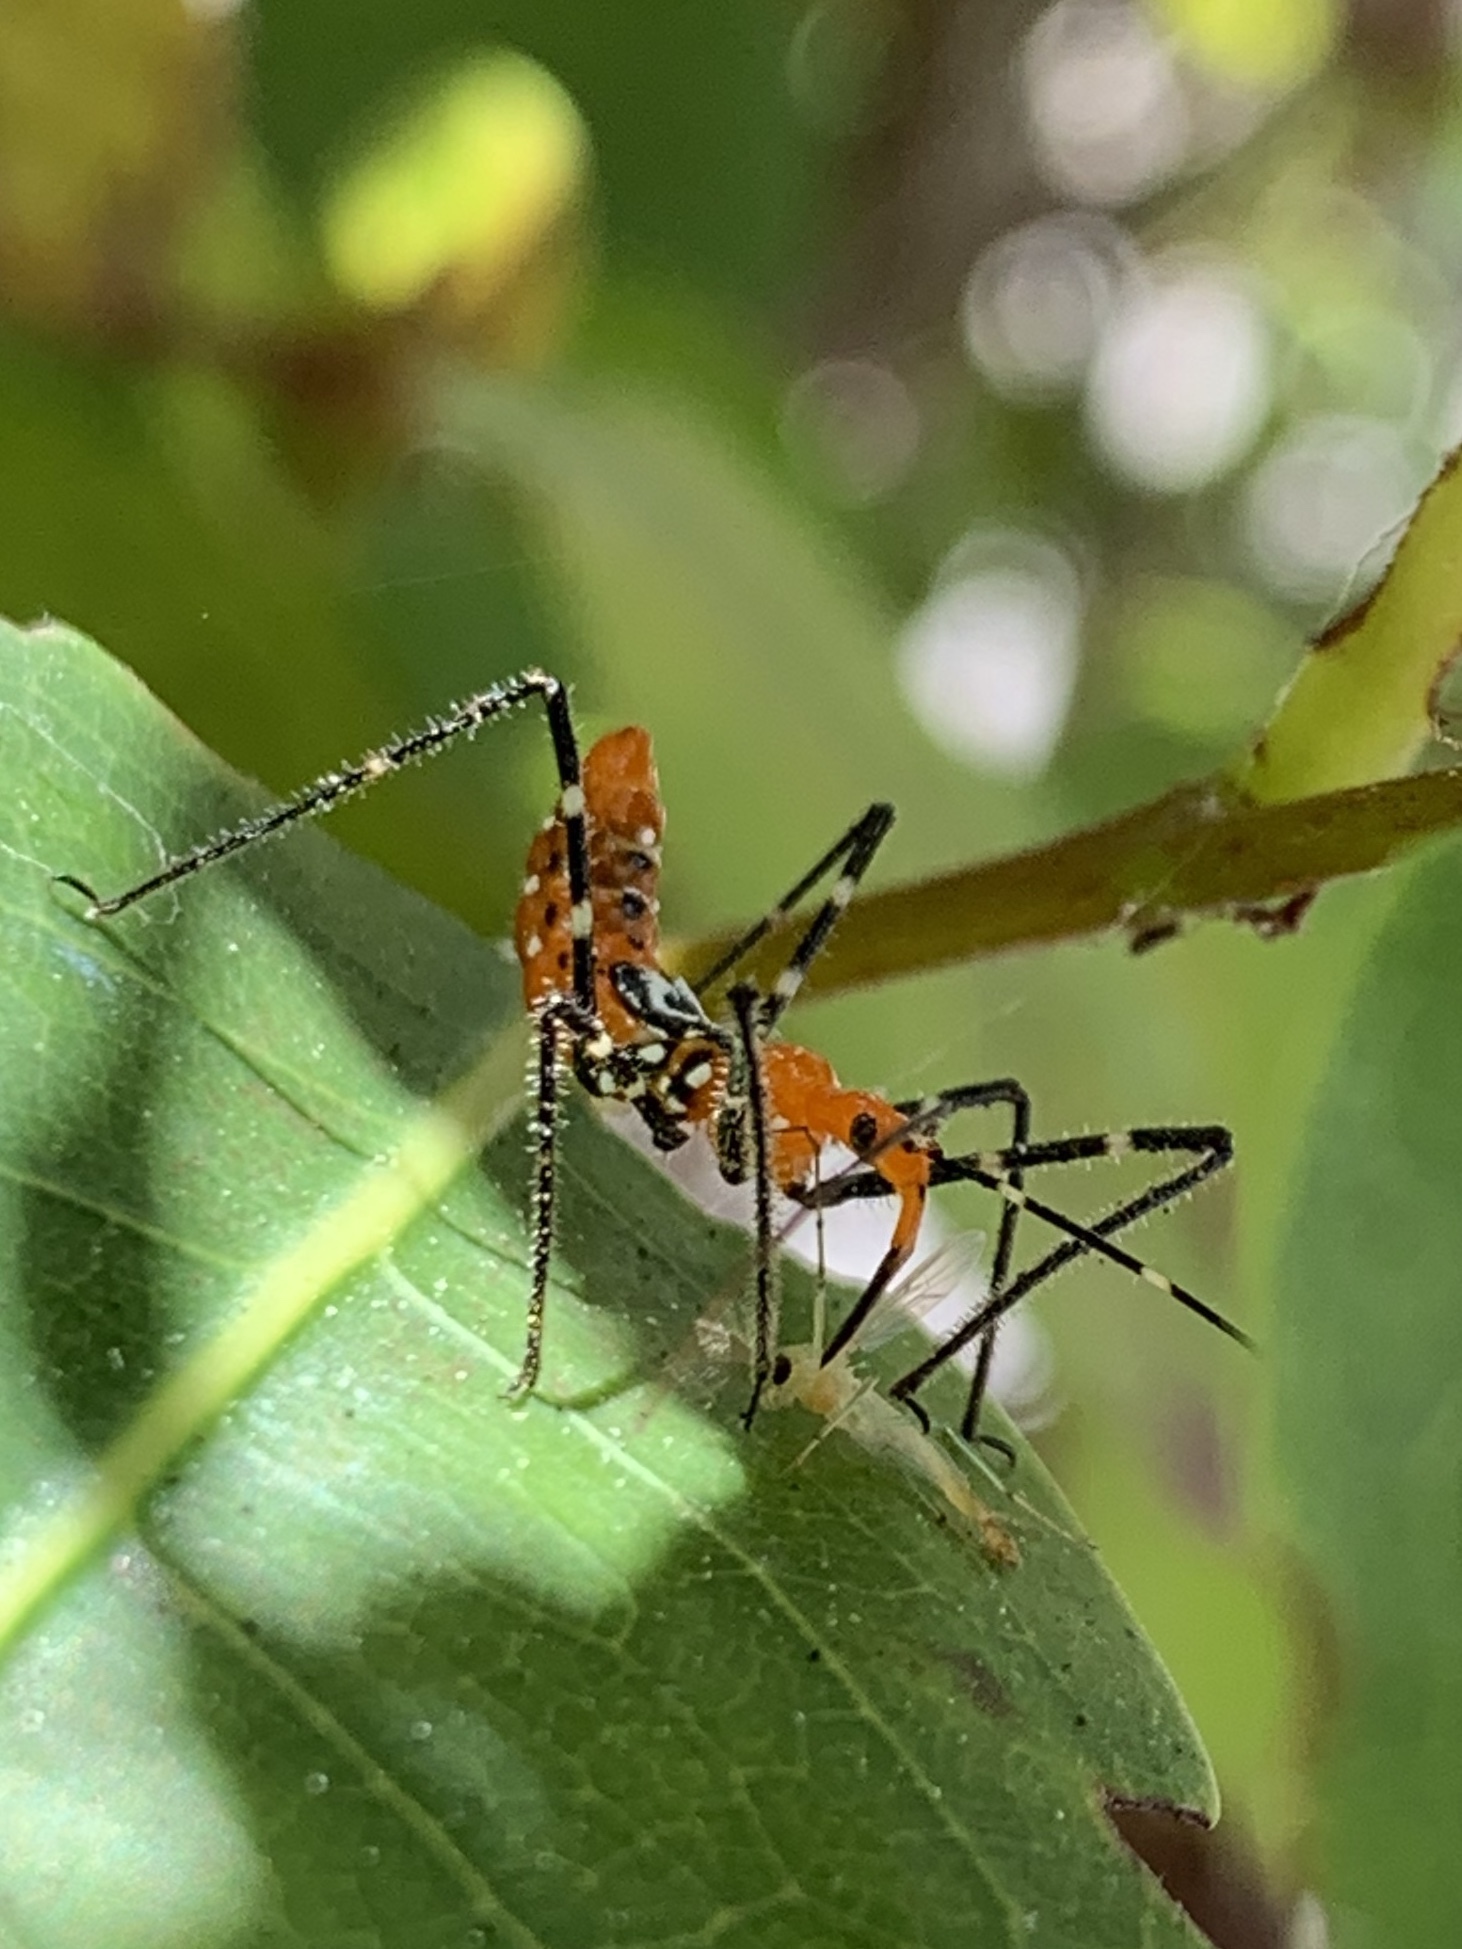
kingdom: Animalia
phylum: Arthropoda
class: Insecta
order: Hemiptera
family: Reduviidae
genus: Zelus
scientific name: Zelus longipes
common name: Milkweed assassin bug
